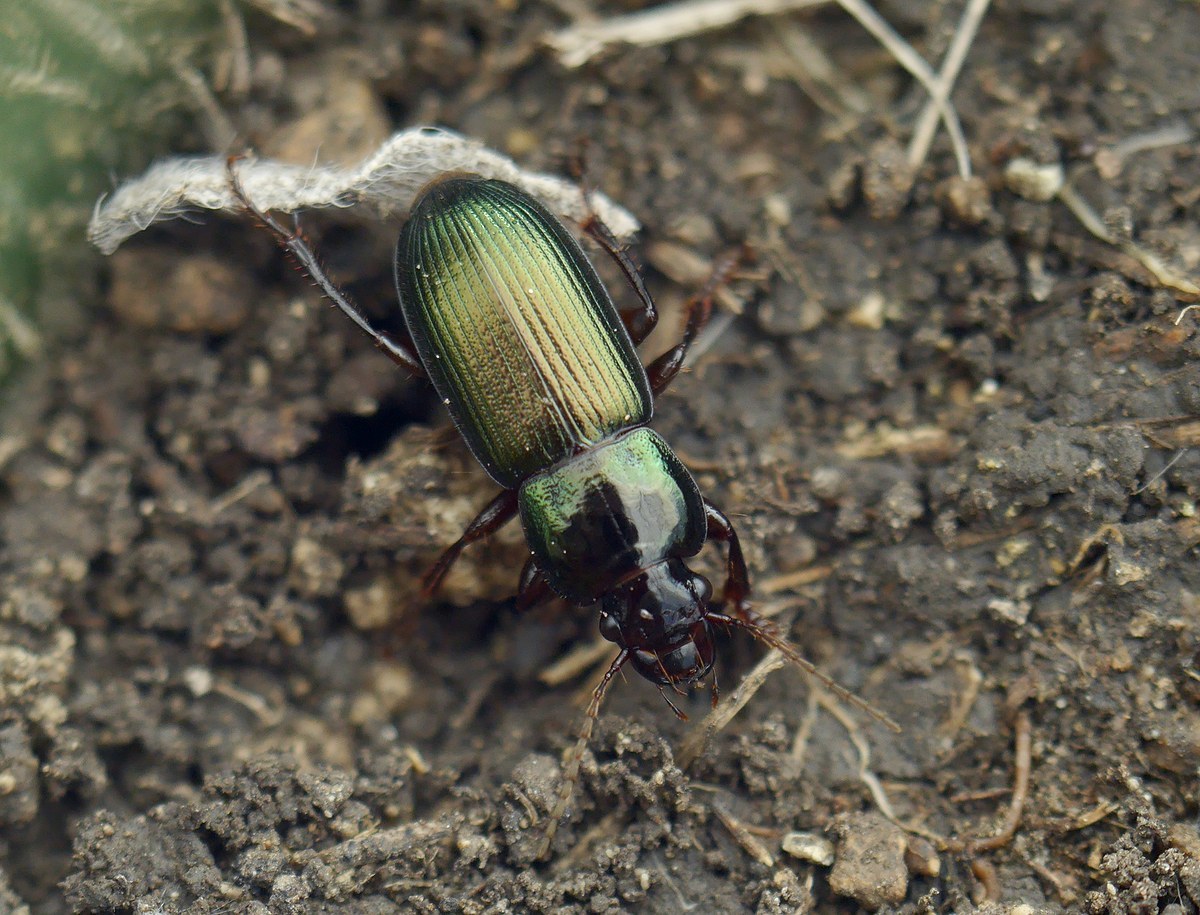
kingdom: Animalia
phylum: Arthropoda
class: Insecta
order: Coleoptera
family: Carabidae
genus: Harpalus
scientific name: Harpalus affinis
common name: Polychrome harp ground beetle
